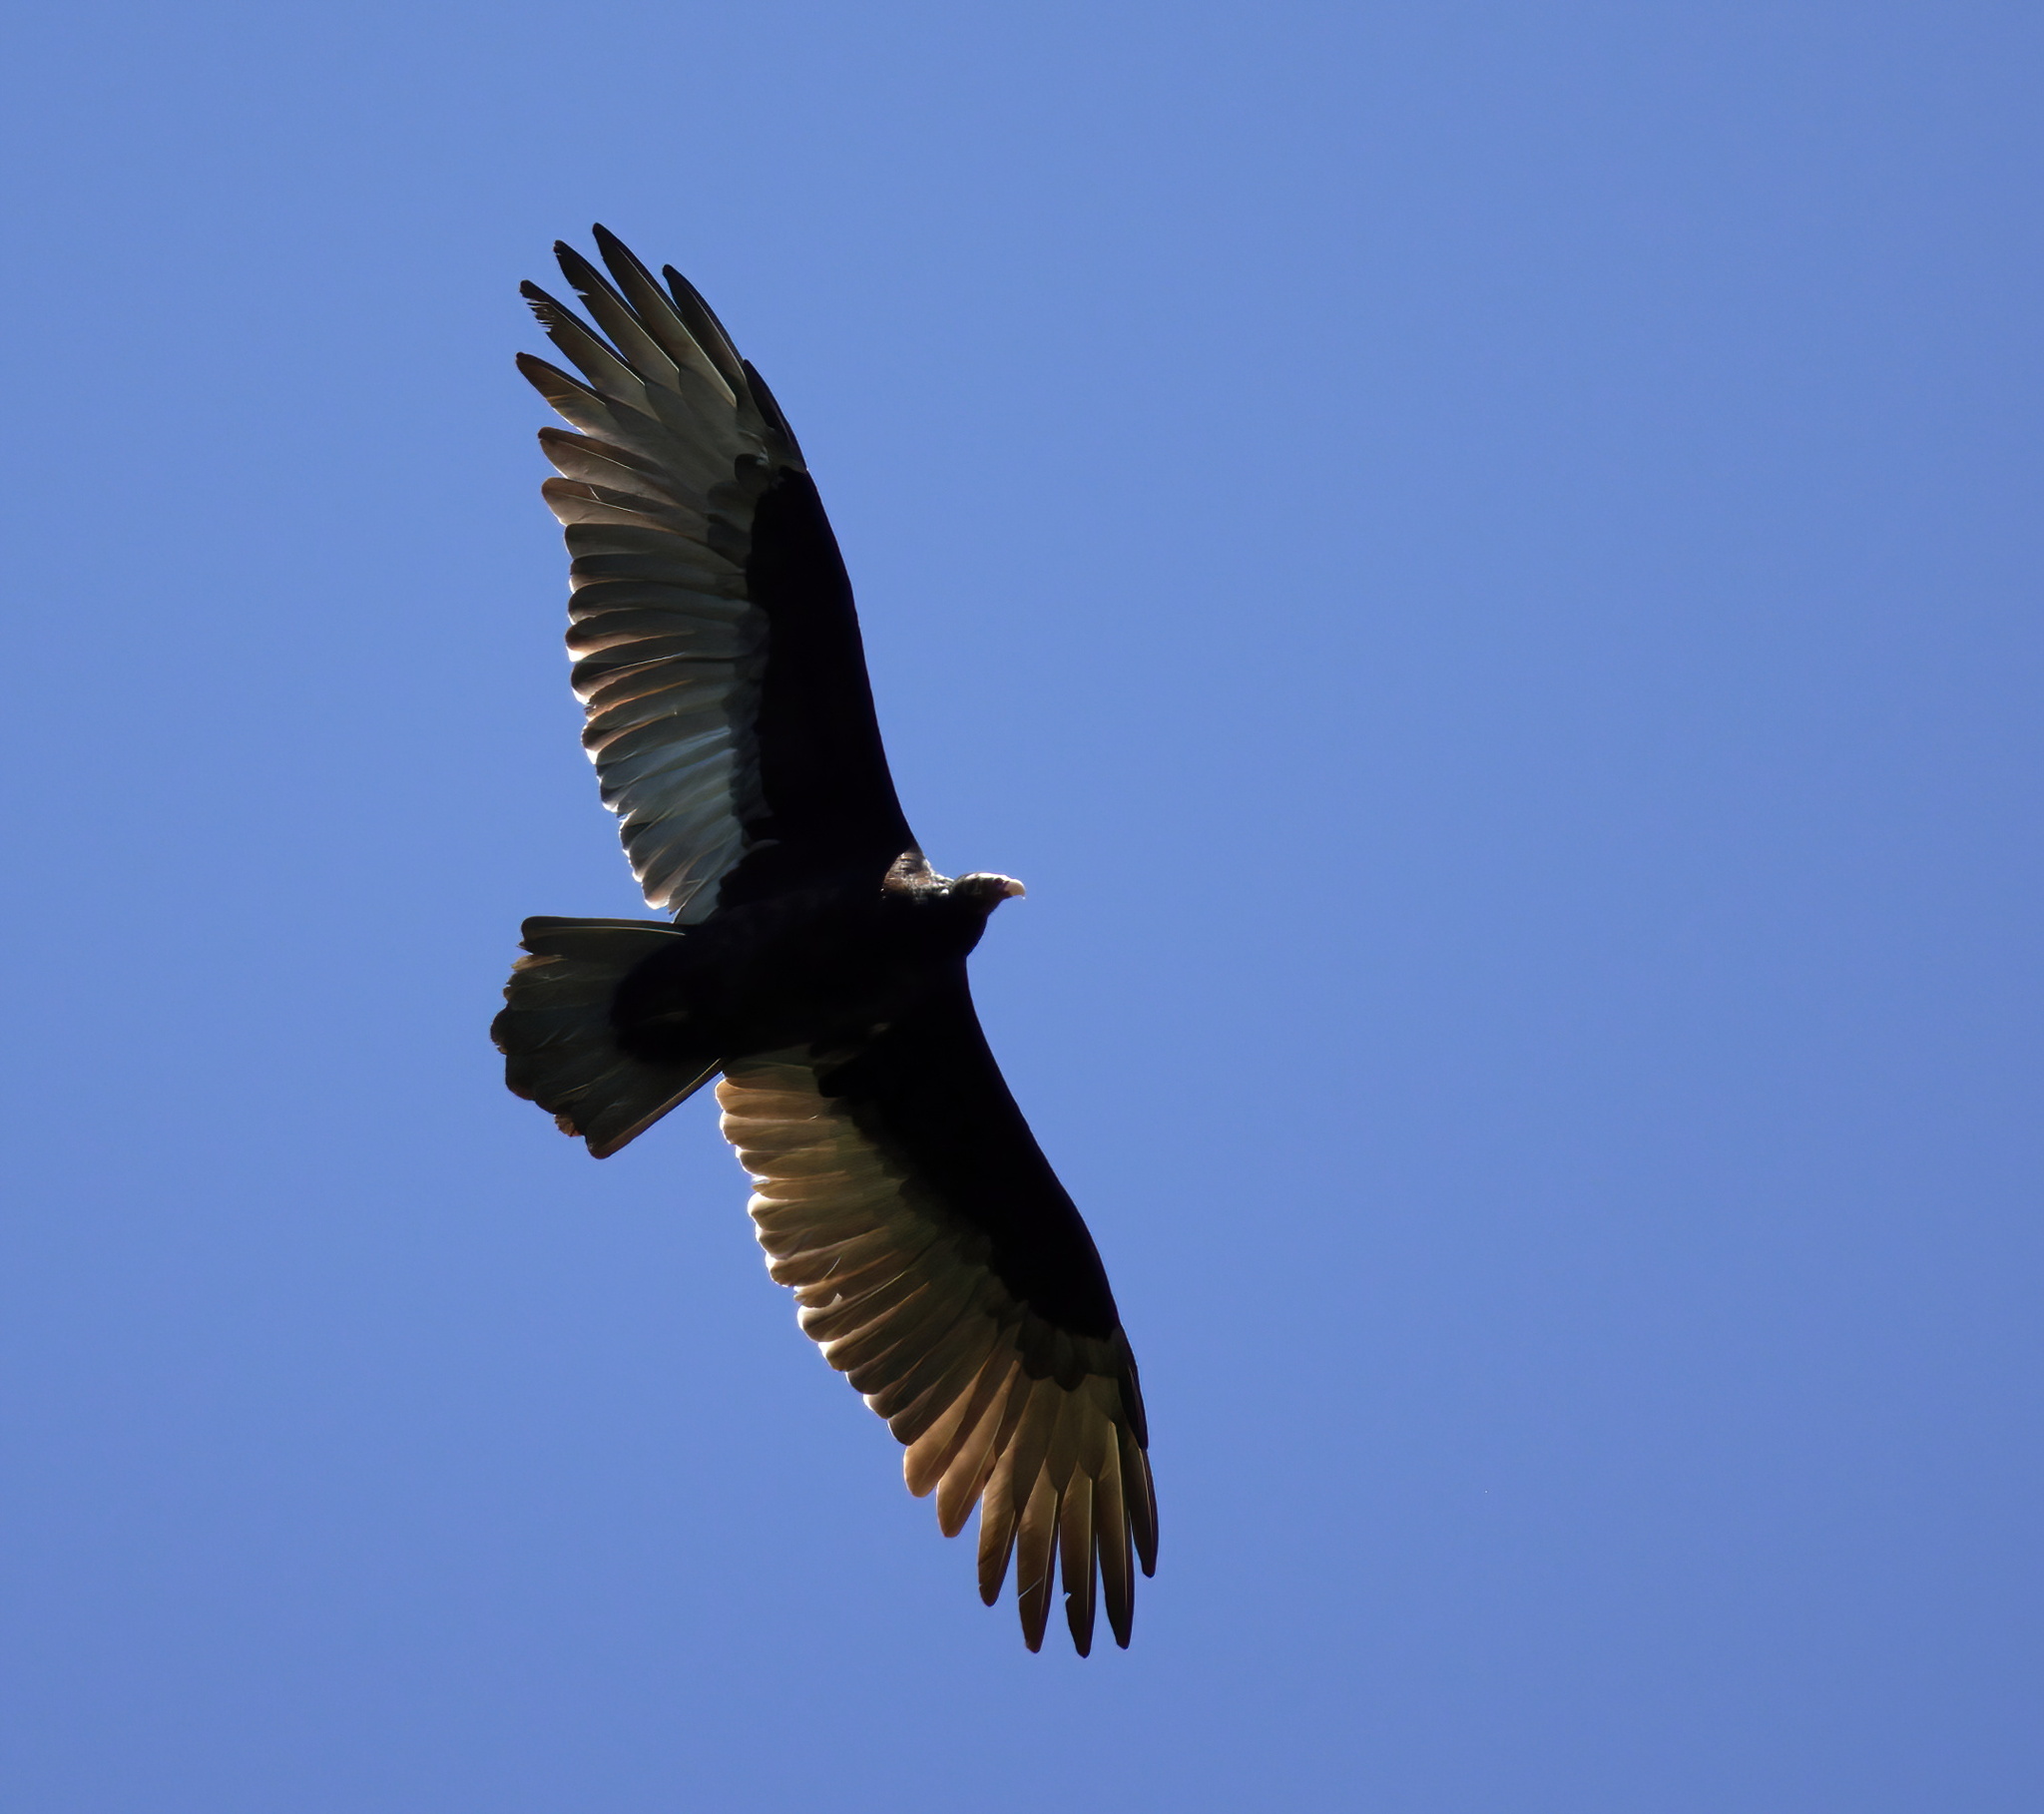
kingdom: Animalia
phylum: Chordata
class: Aves
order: Accipitriformes
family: Cathartidae
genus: Cathartes
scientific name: Cathartes aura
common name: Turkey vulture
